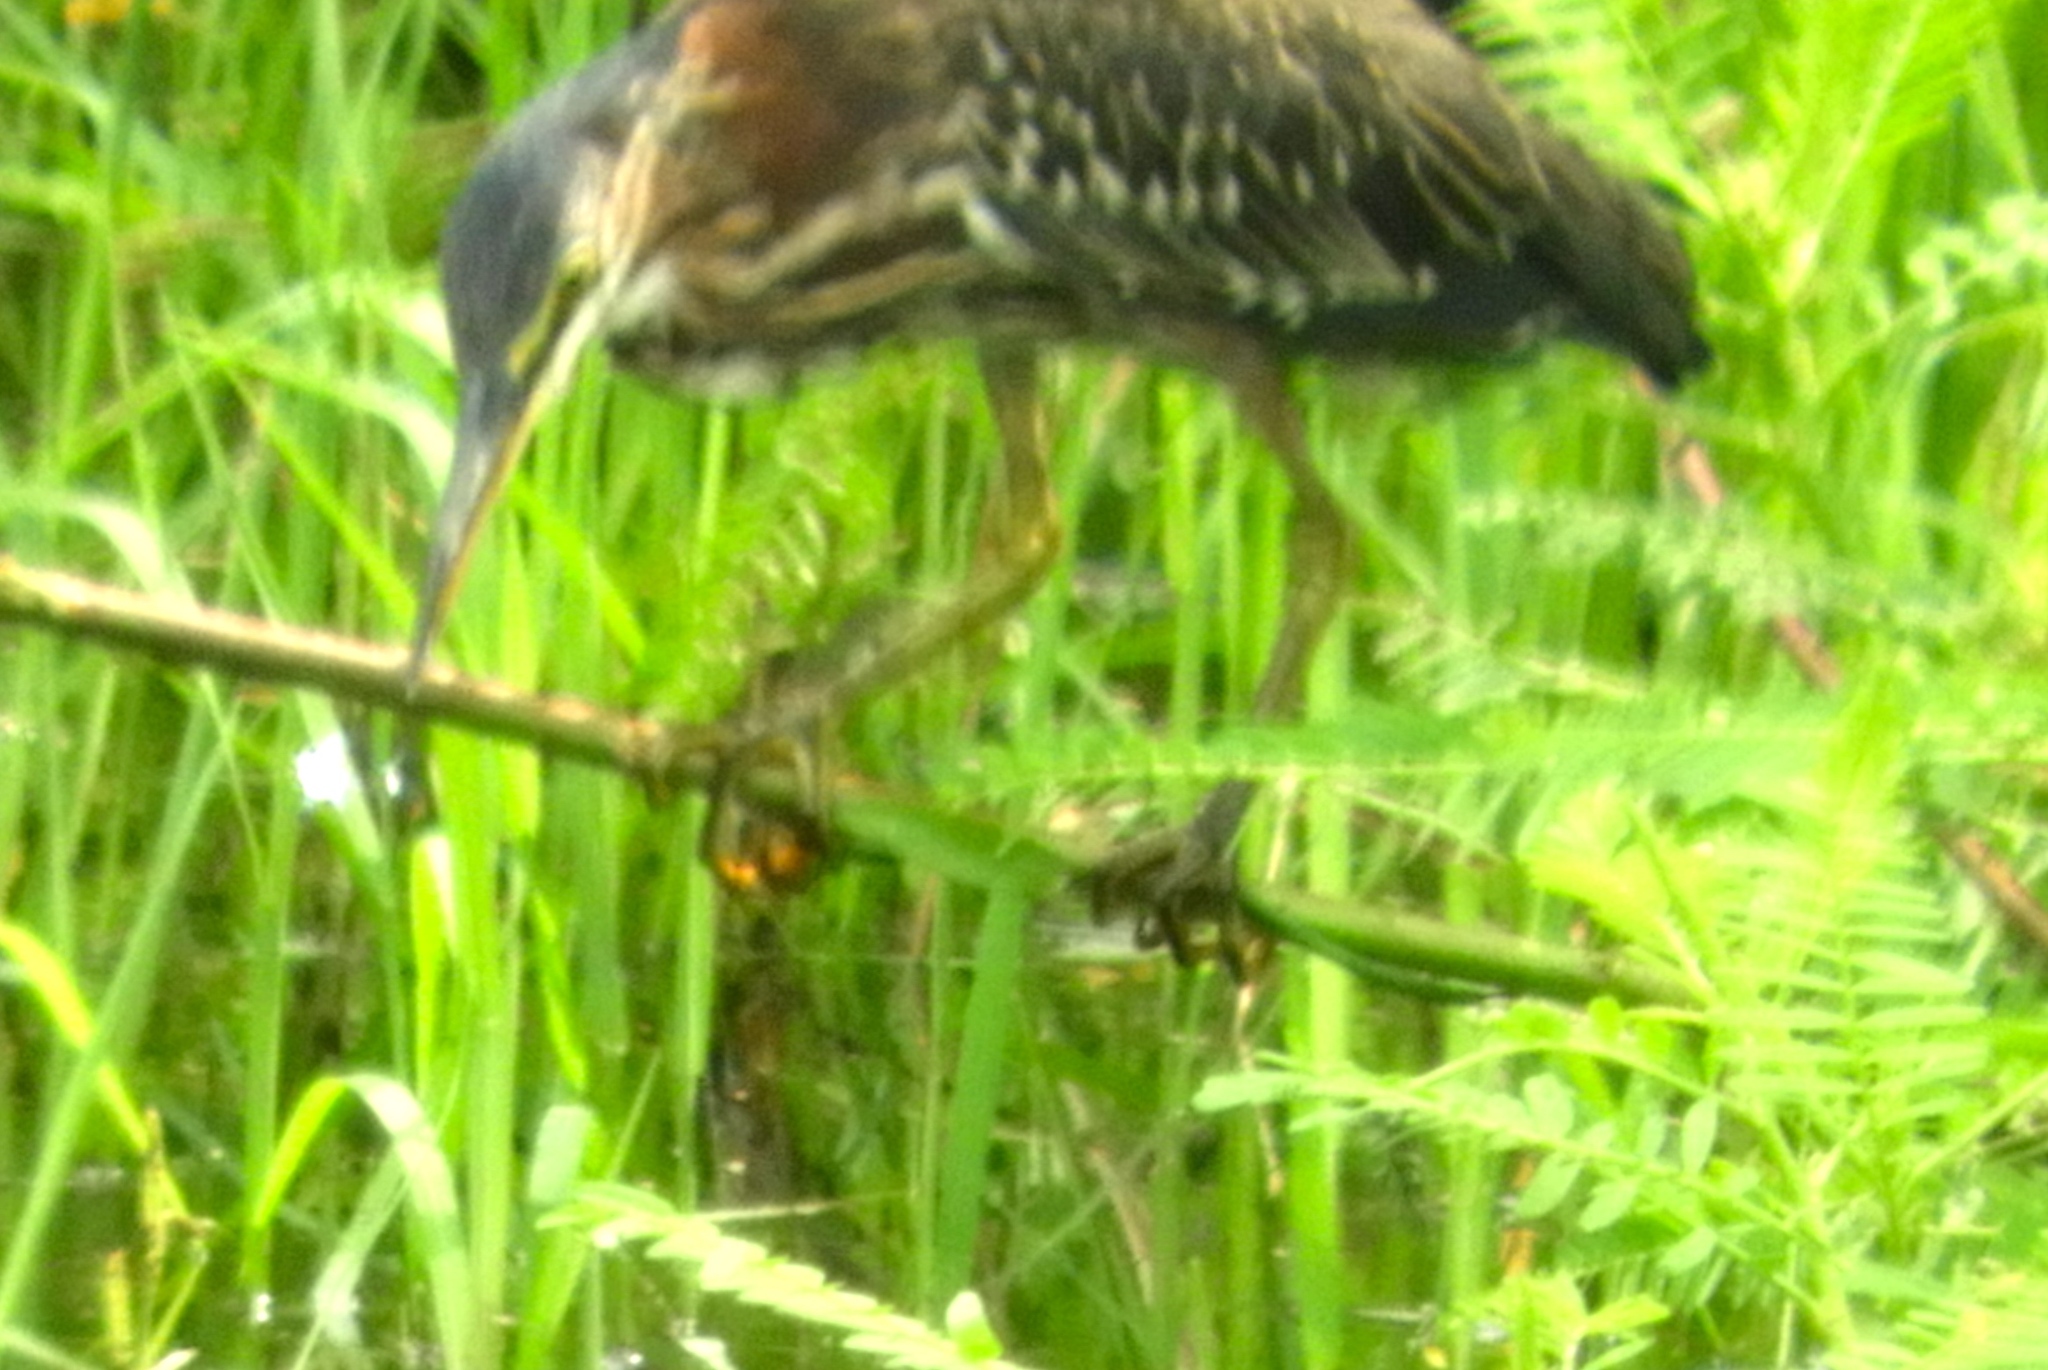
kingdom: Animalia
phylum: Chordata
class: Aves
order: Pelecaniformes
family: Ardeidae
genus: Butorides
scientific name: Butorides virescens
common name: Green heron
